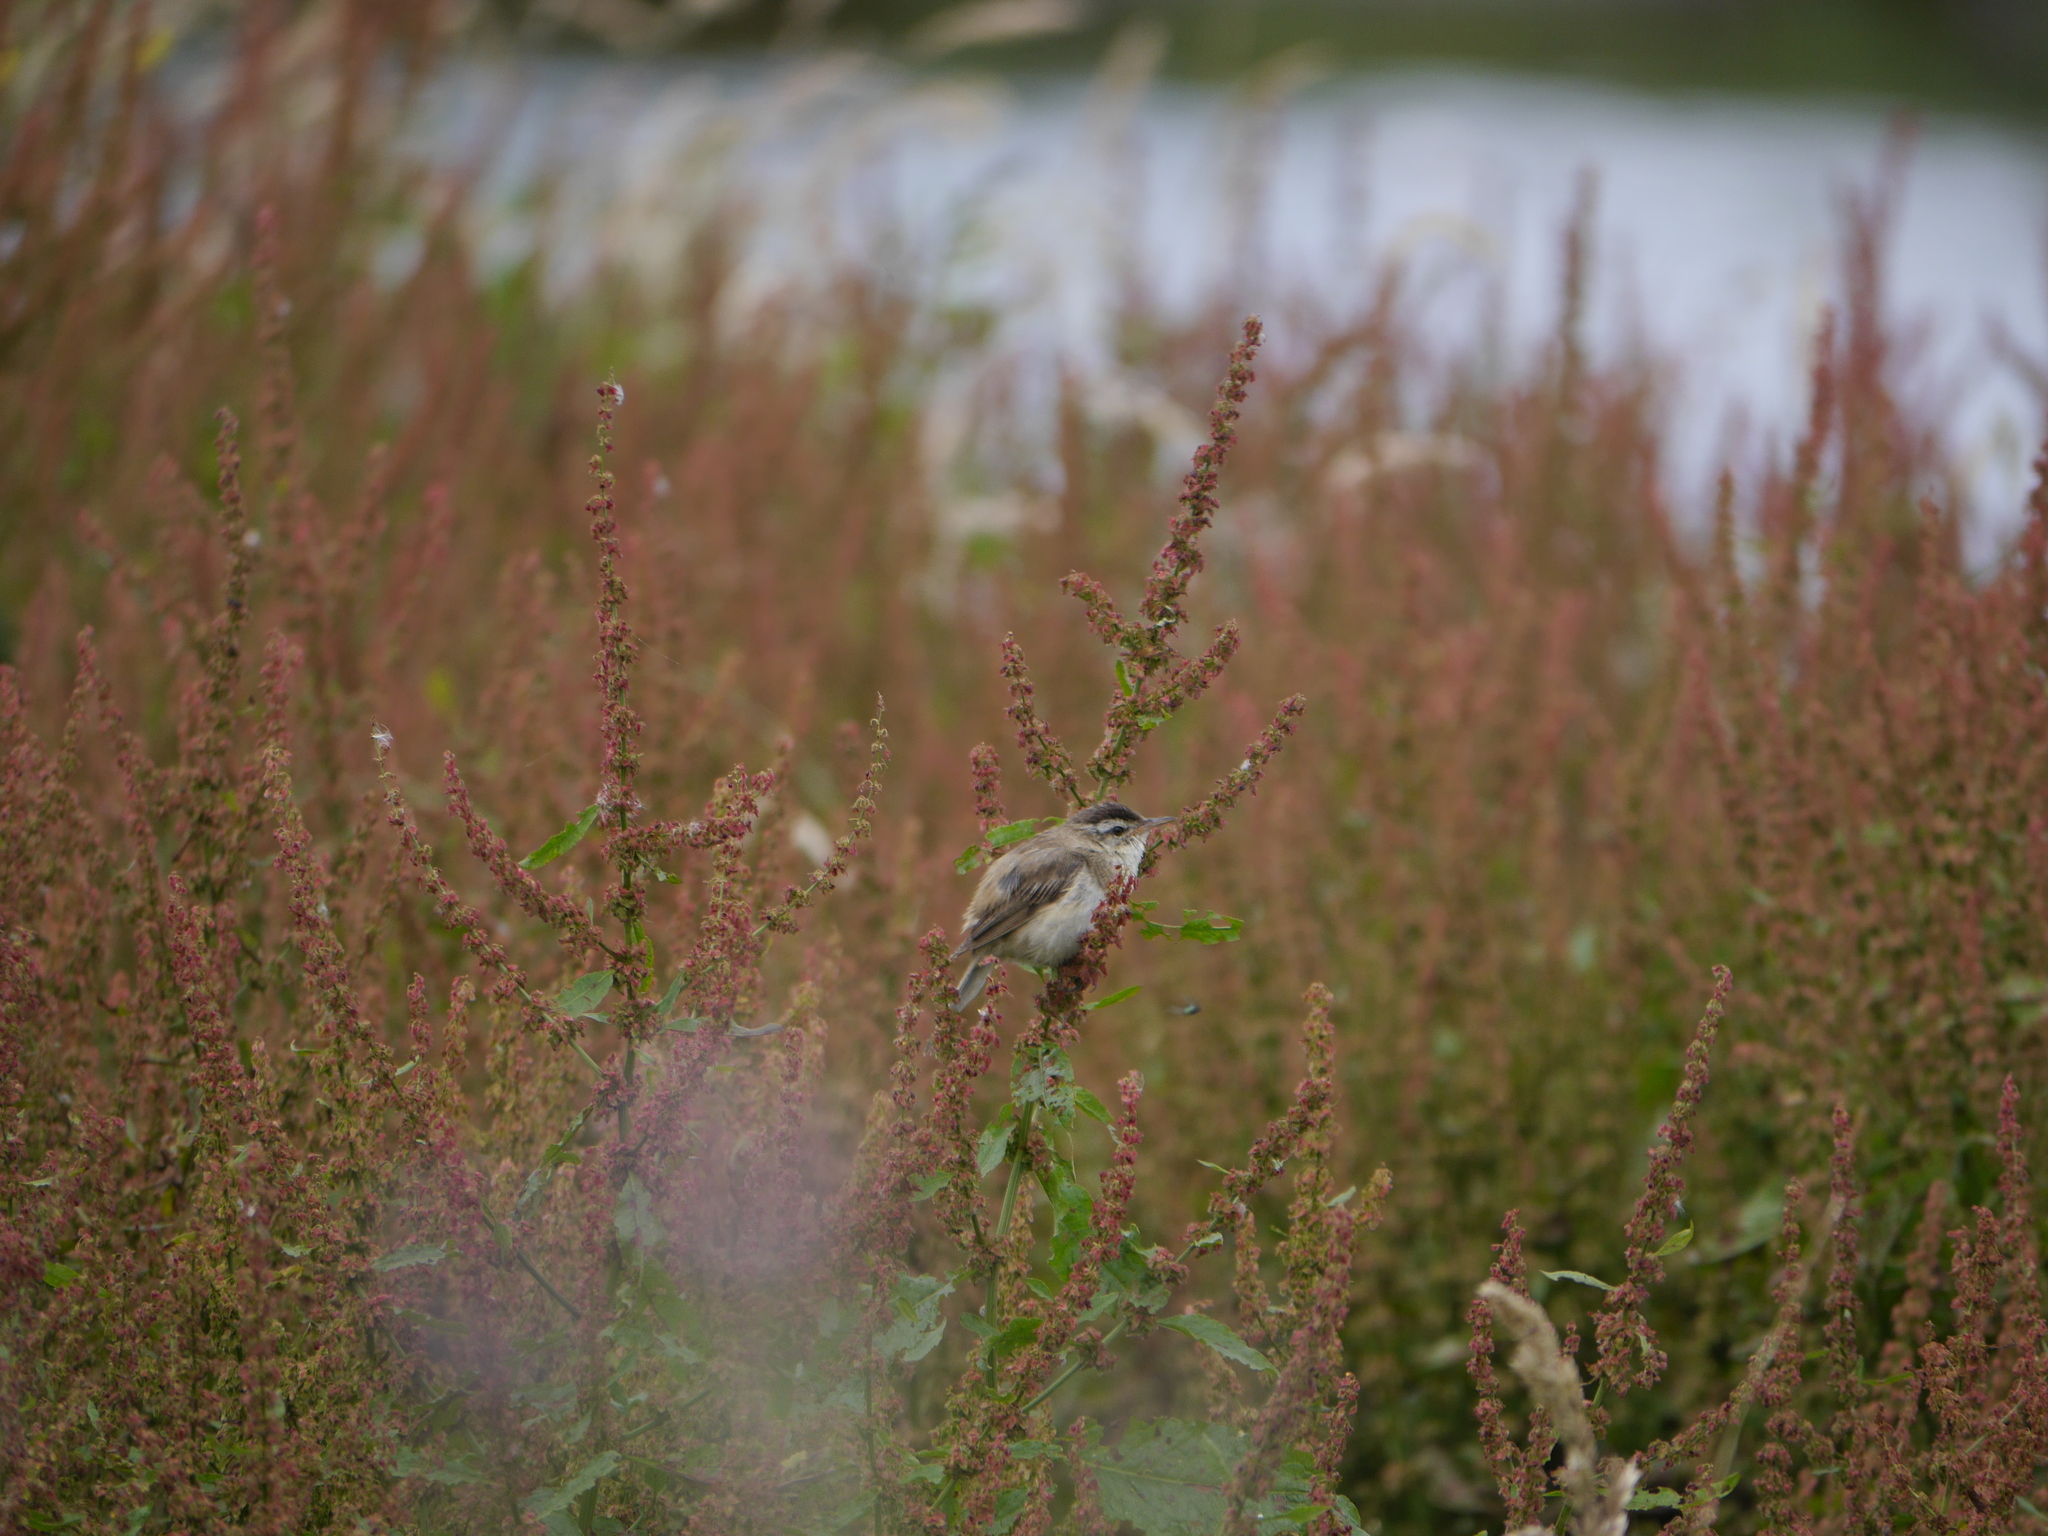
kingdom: Animalia
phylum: Chordata
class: Aves
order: Passeriformes
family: Acrocephalidae
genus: Acrocephalus
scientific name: Acrocephalus schoenobaenus
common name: Sedge warbler
